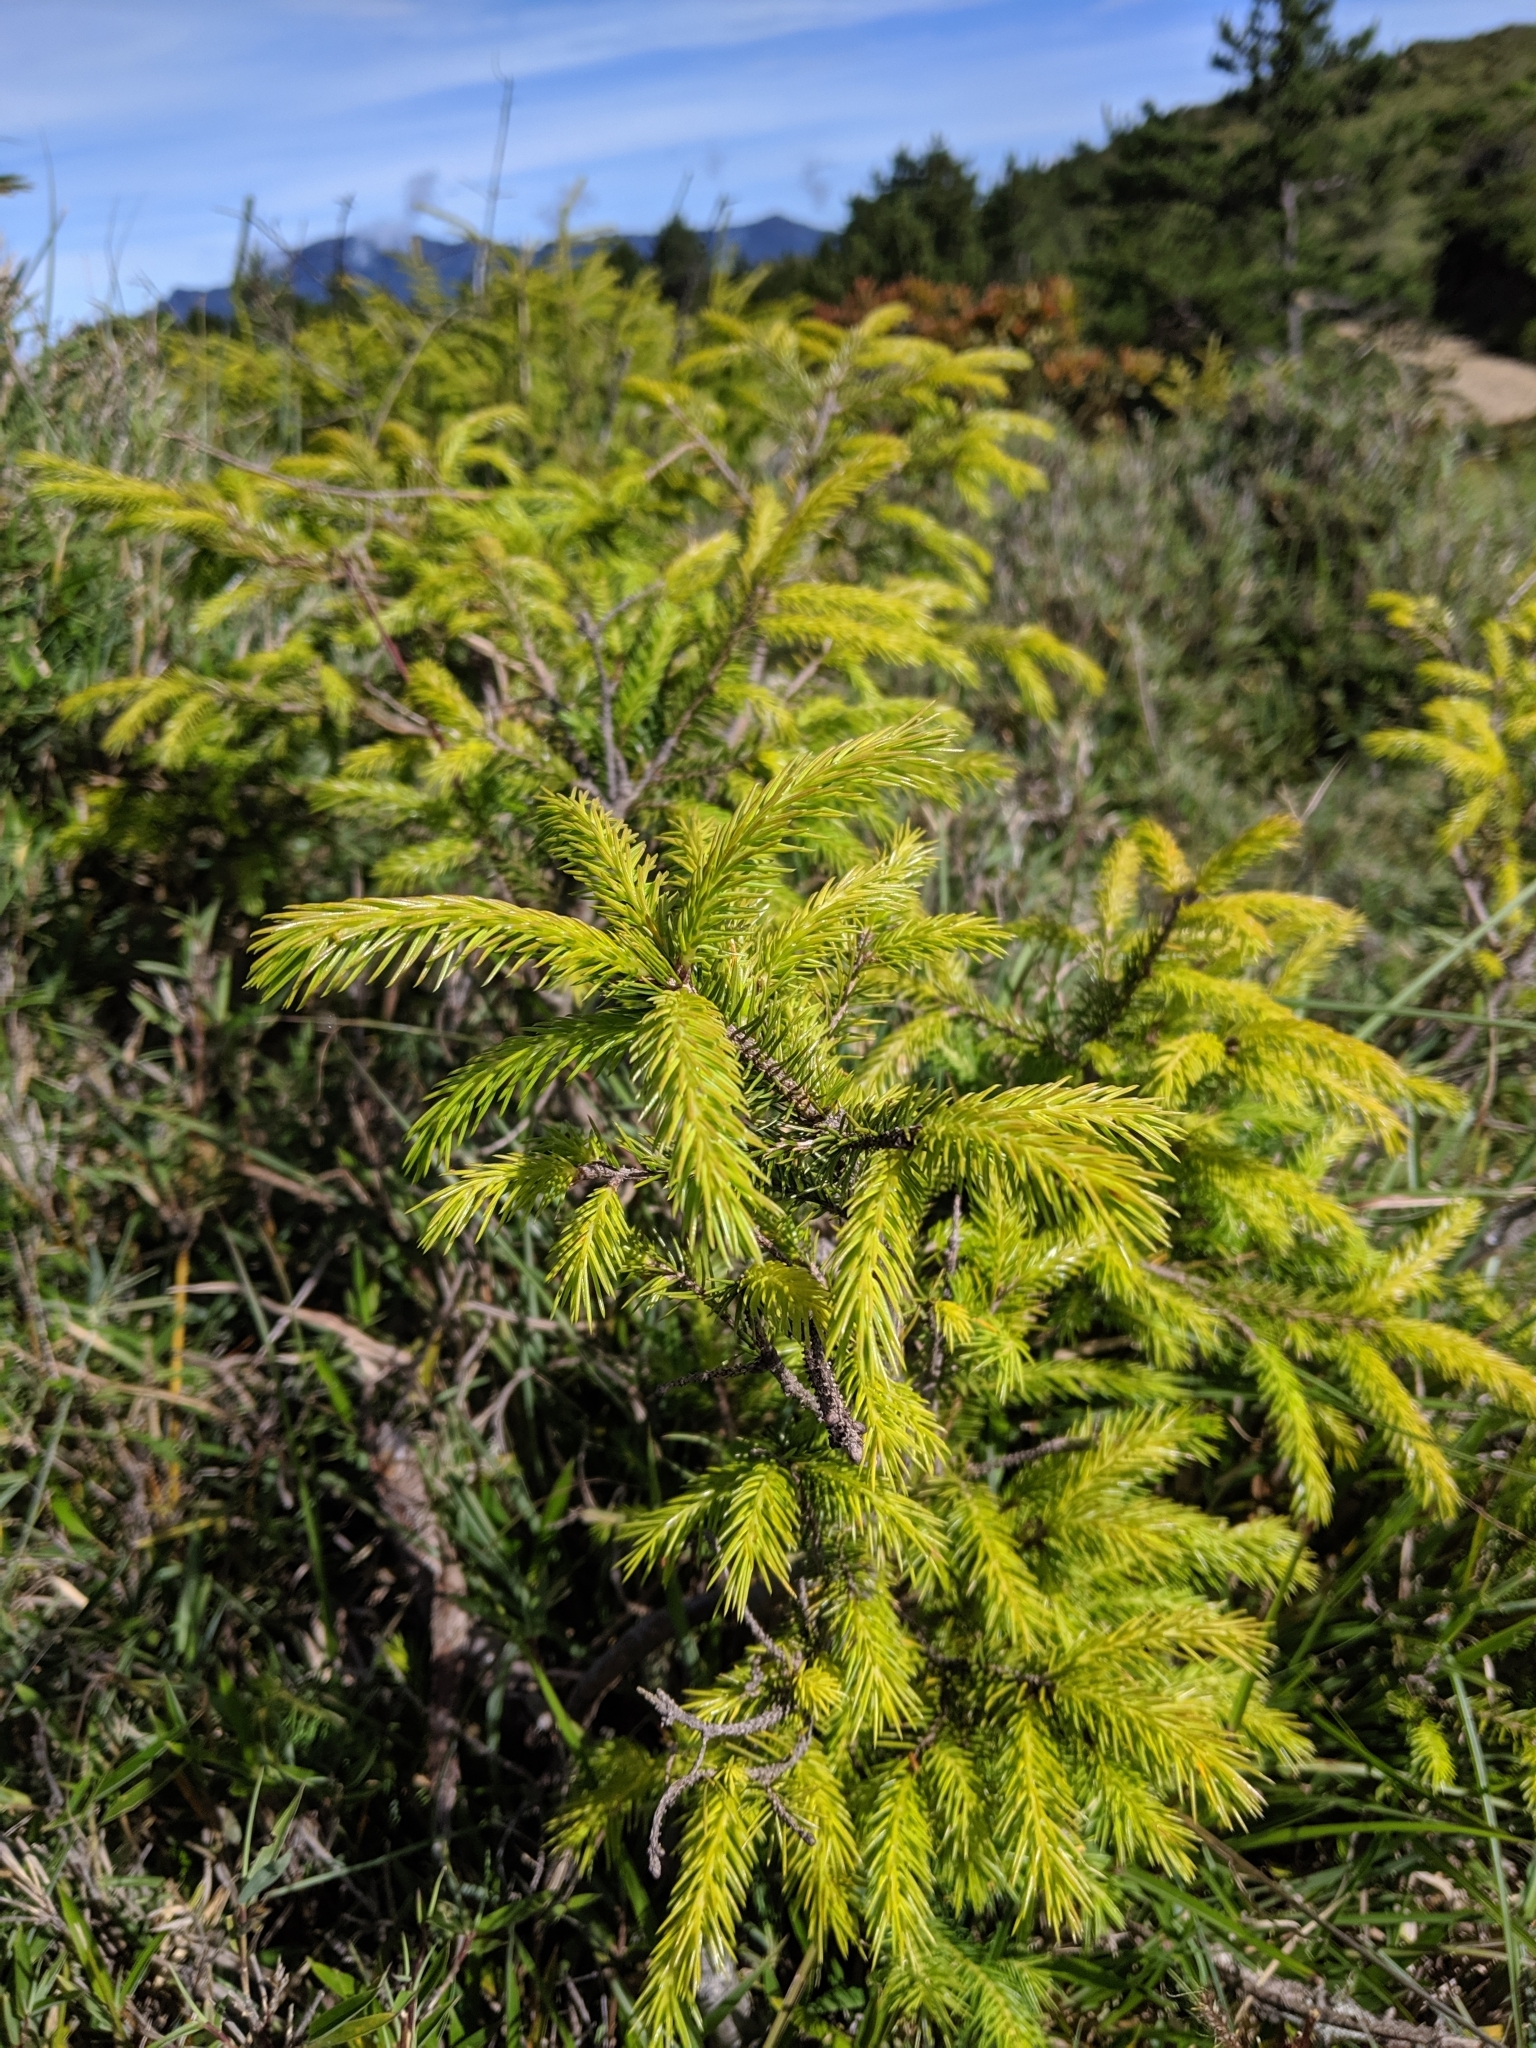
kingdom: Plantae
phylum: Tracheophyta
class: Pinopsida
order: Pinales
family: Pinaceae
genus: Picea
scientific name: Picea morrisonicola
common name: Mount morrison spruce
